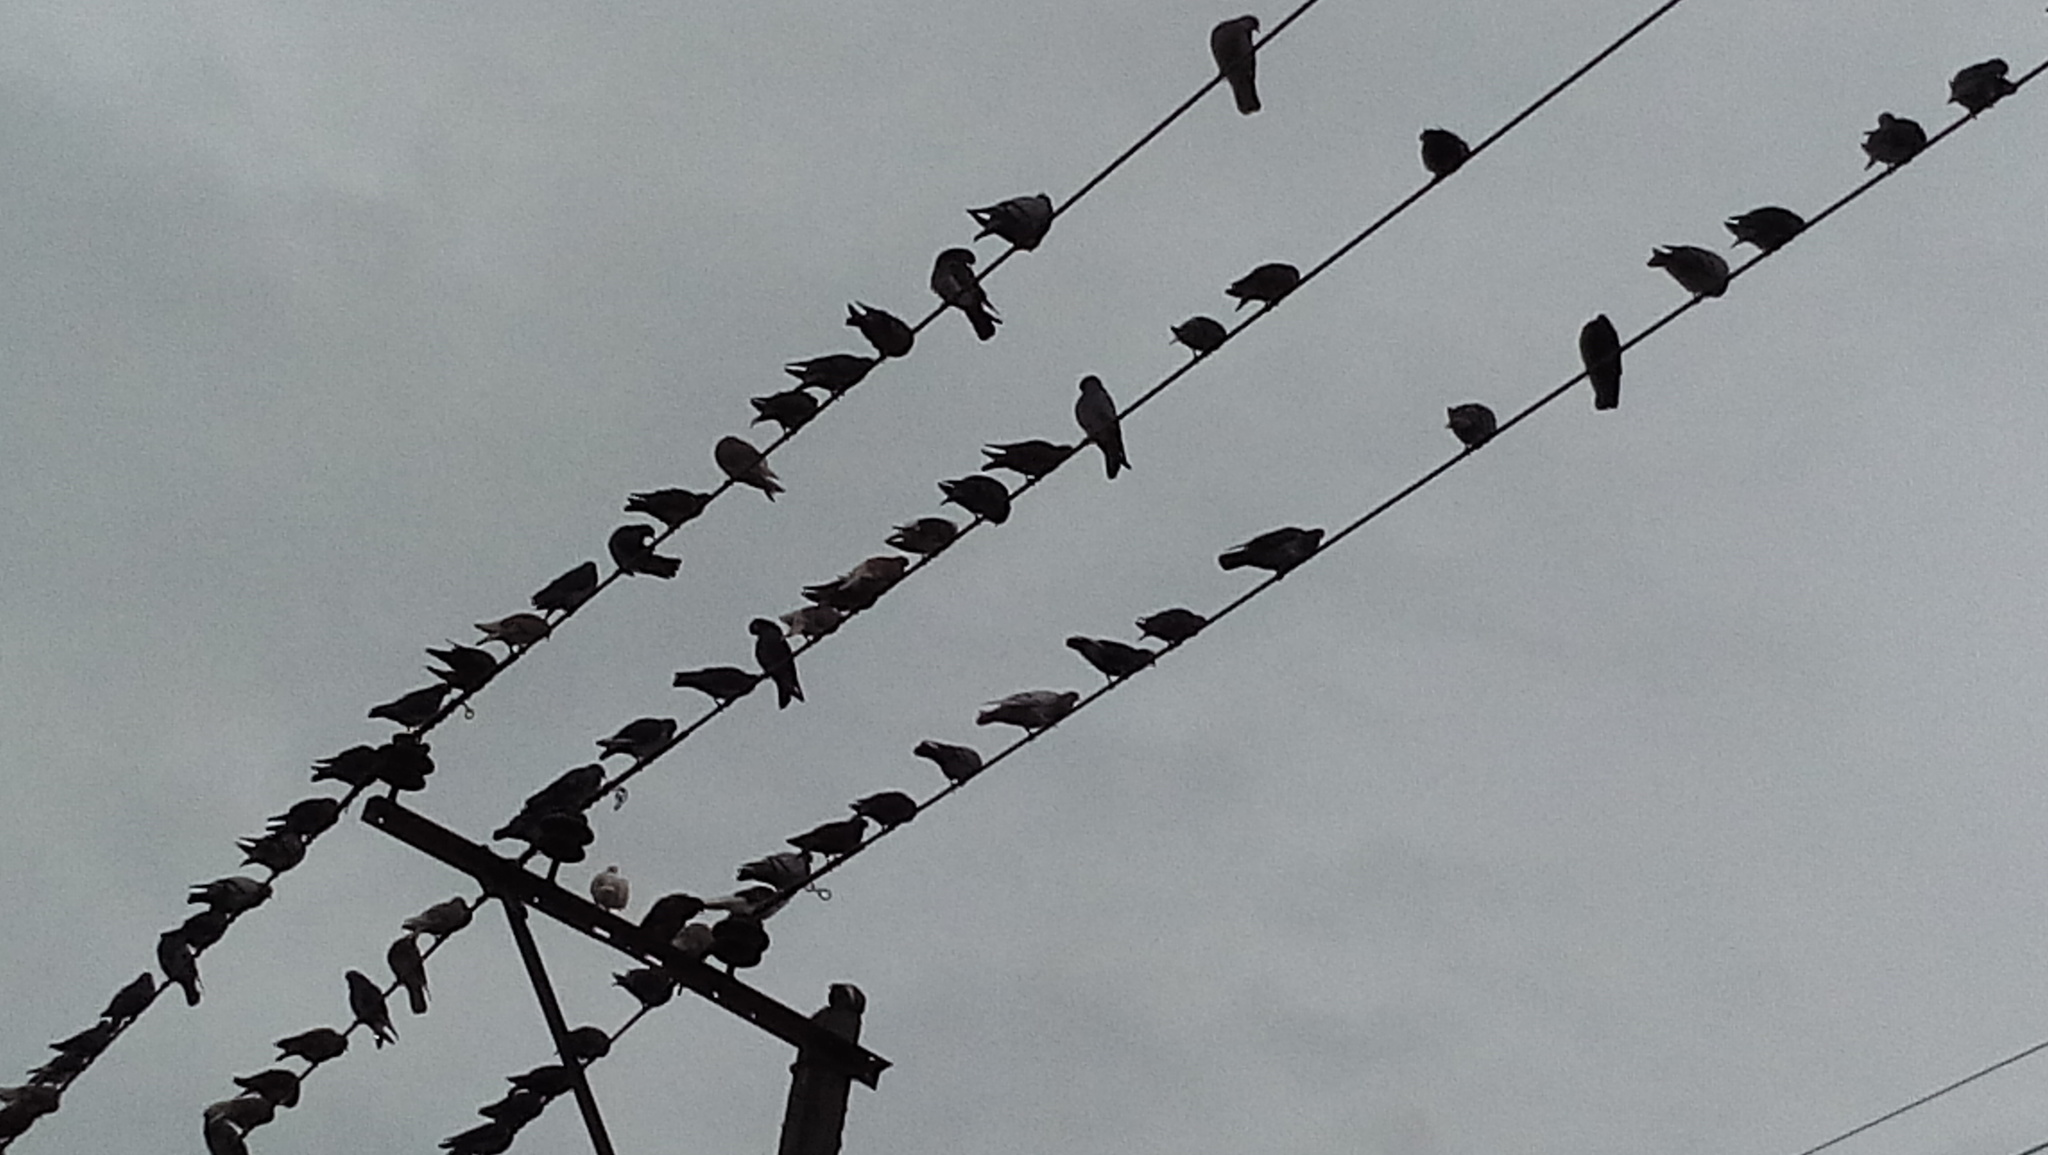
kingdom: Animalia
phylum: Chordata
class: Aves
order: Columbiformes
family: Columbidae
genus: Columba
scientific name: Columba livia
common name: Rock pigeon
